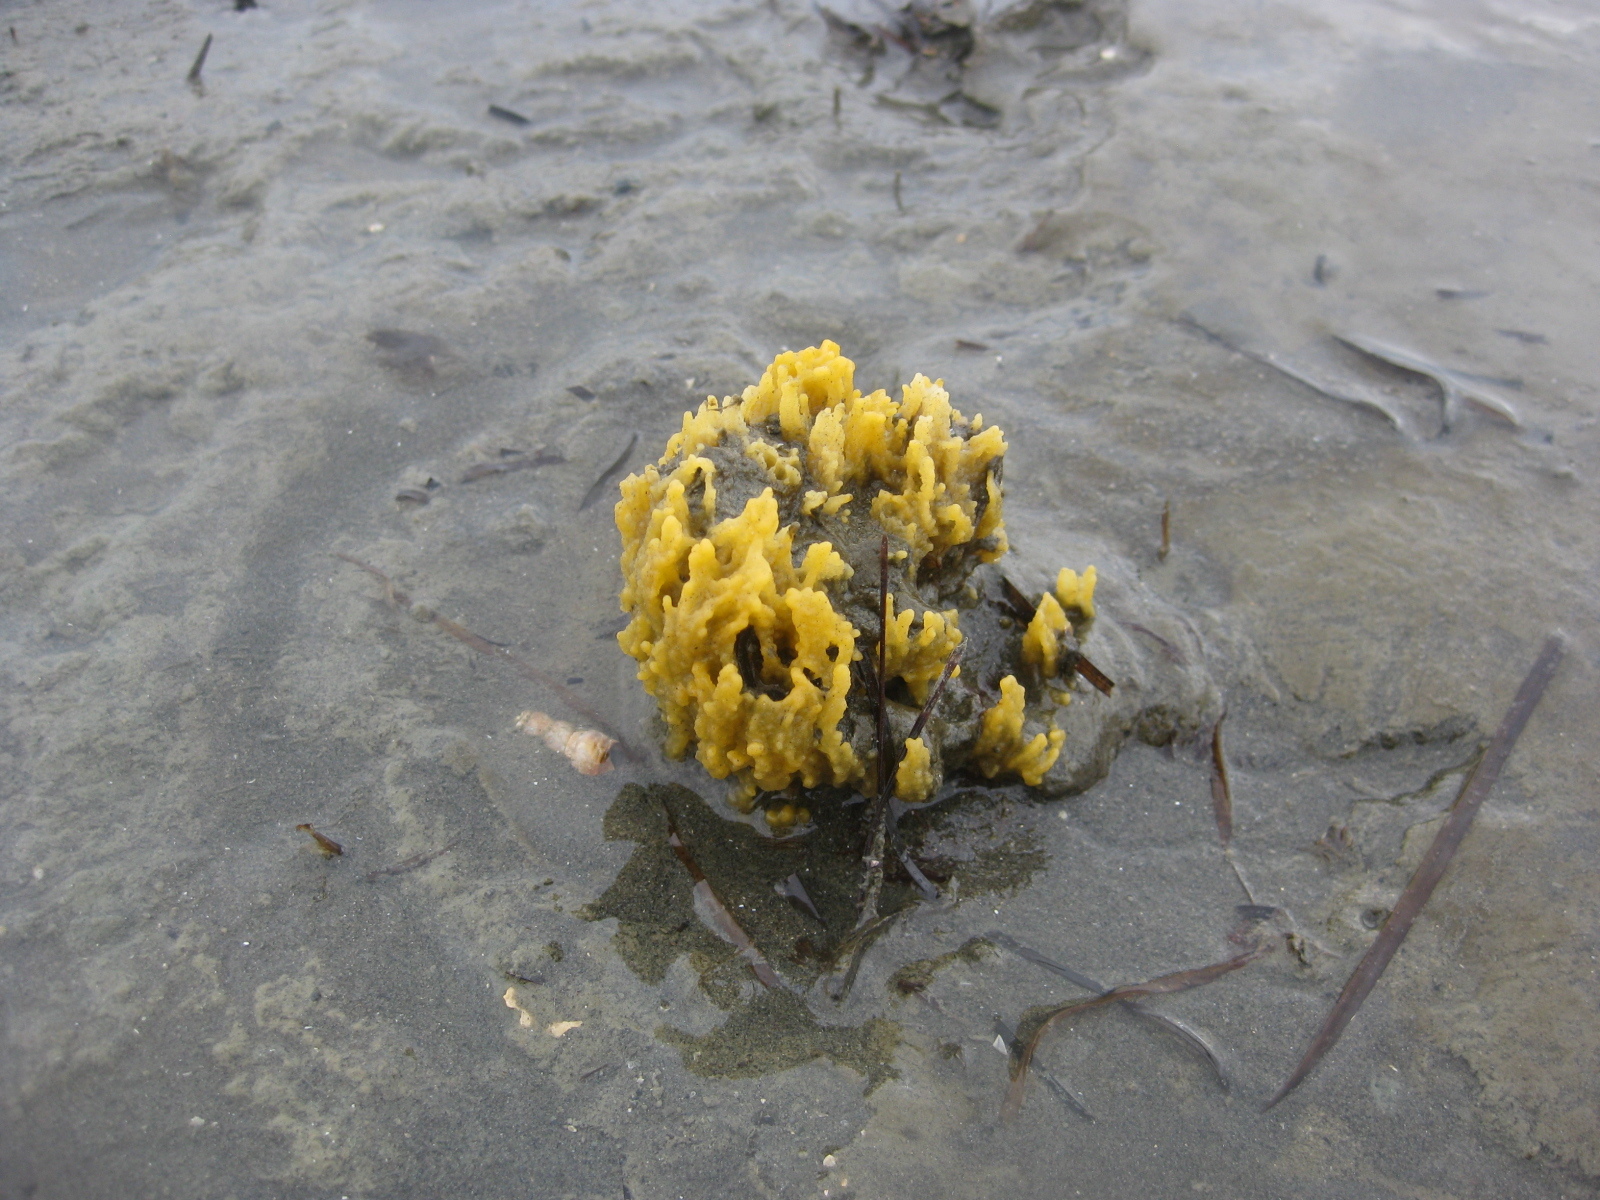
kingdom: Animalia
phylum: Porifera
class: Demospongiae
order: Suberitida
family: Halichondriidae
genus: Ciocalypta
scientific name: Ciocalypta polymastia
